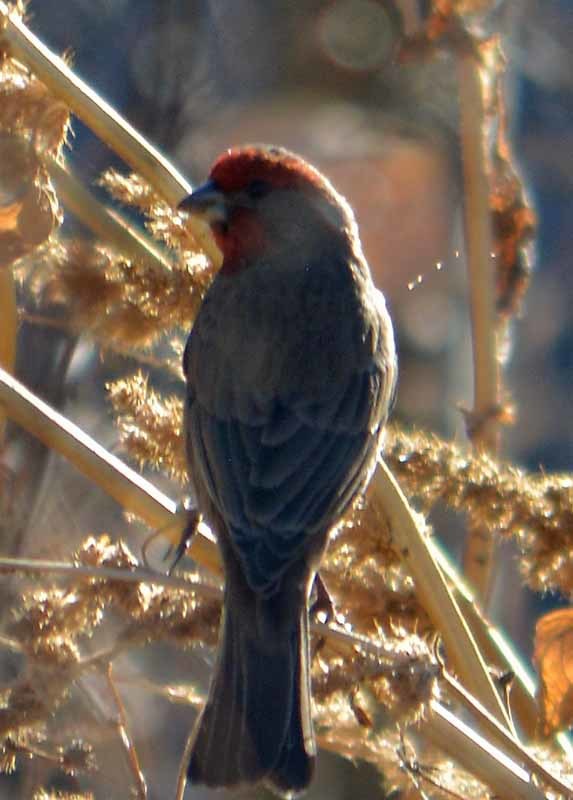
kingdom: Animalia
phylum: Chordata
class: Aves
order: Passeriformes
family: Fringillidae
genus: Haemorhous
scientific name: Haemorhous mexicanus
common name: House finch
